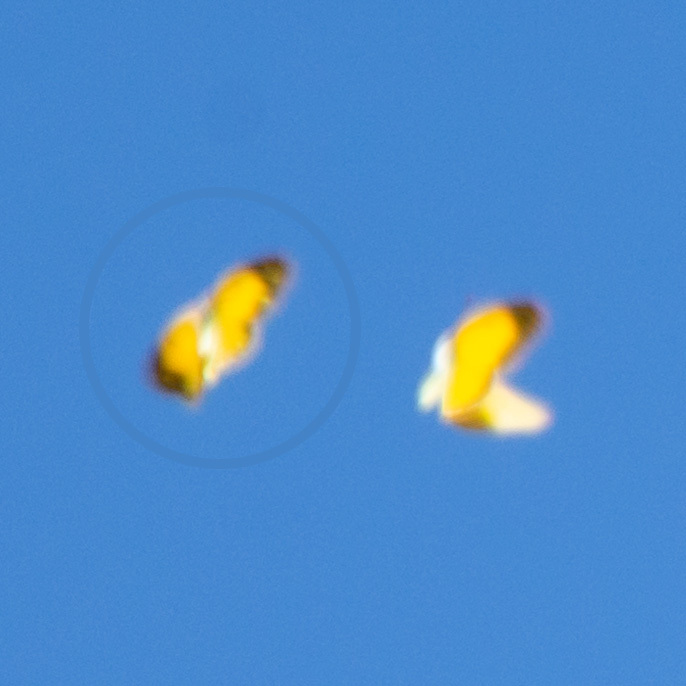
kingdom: Animalia
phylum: Arthropoda
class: Insecta
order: Lepidoptera
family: Pieridae
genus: Colias
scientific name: Colias croceus
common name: Clouded yellow
